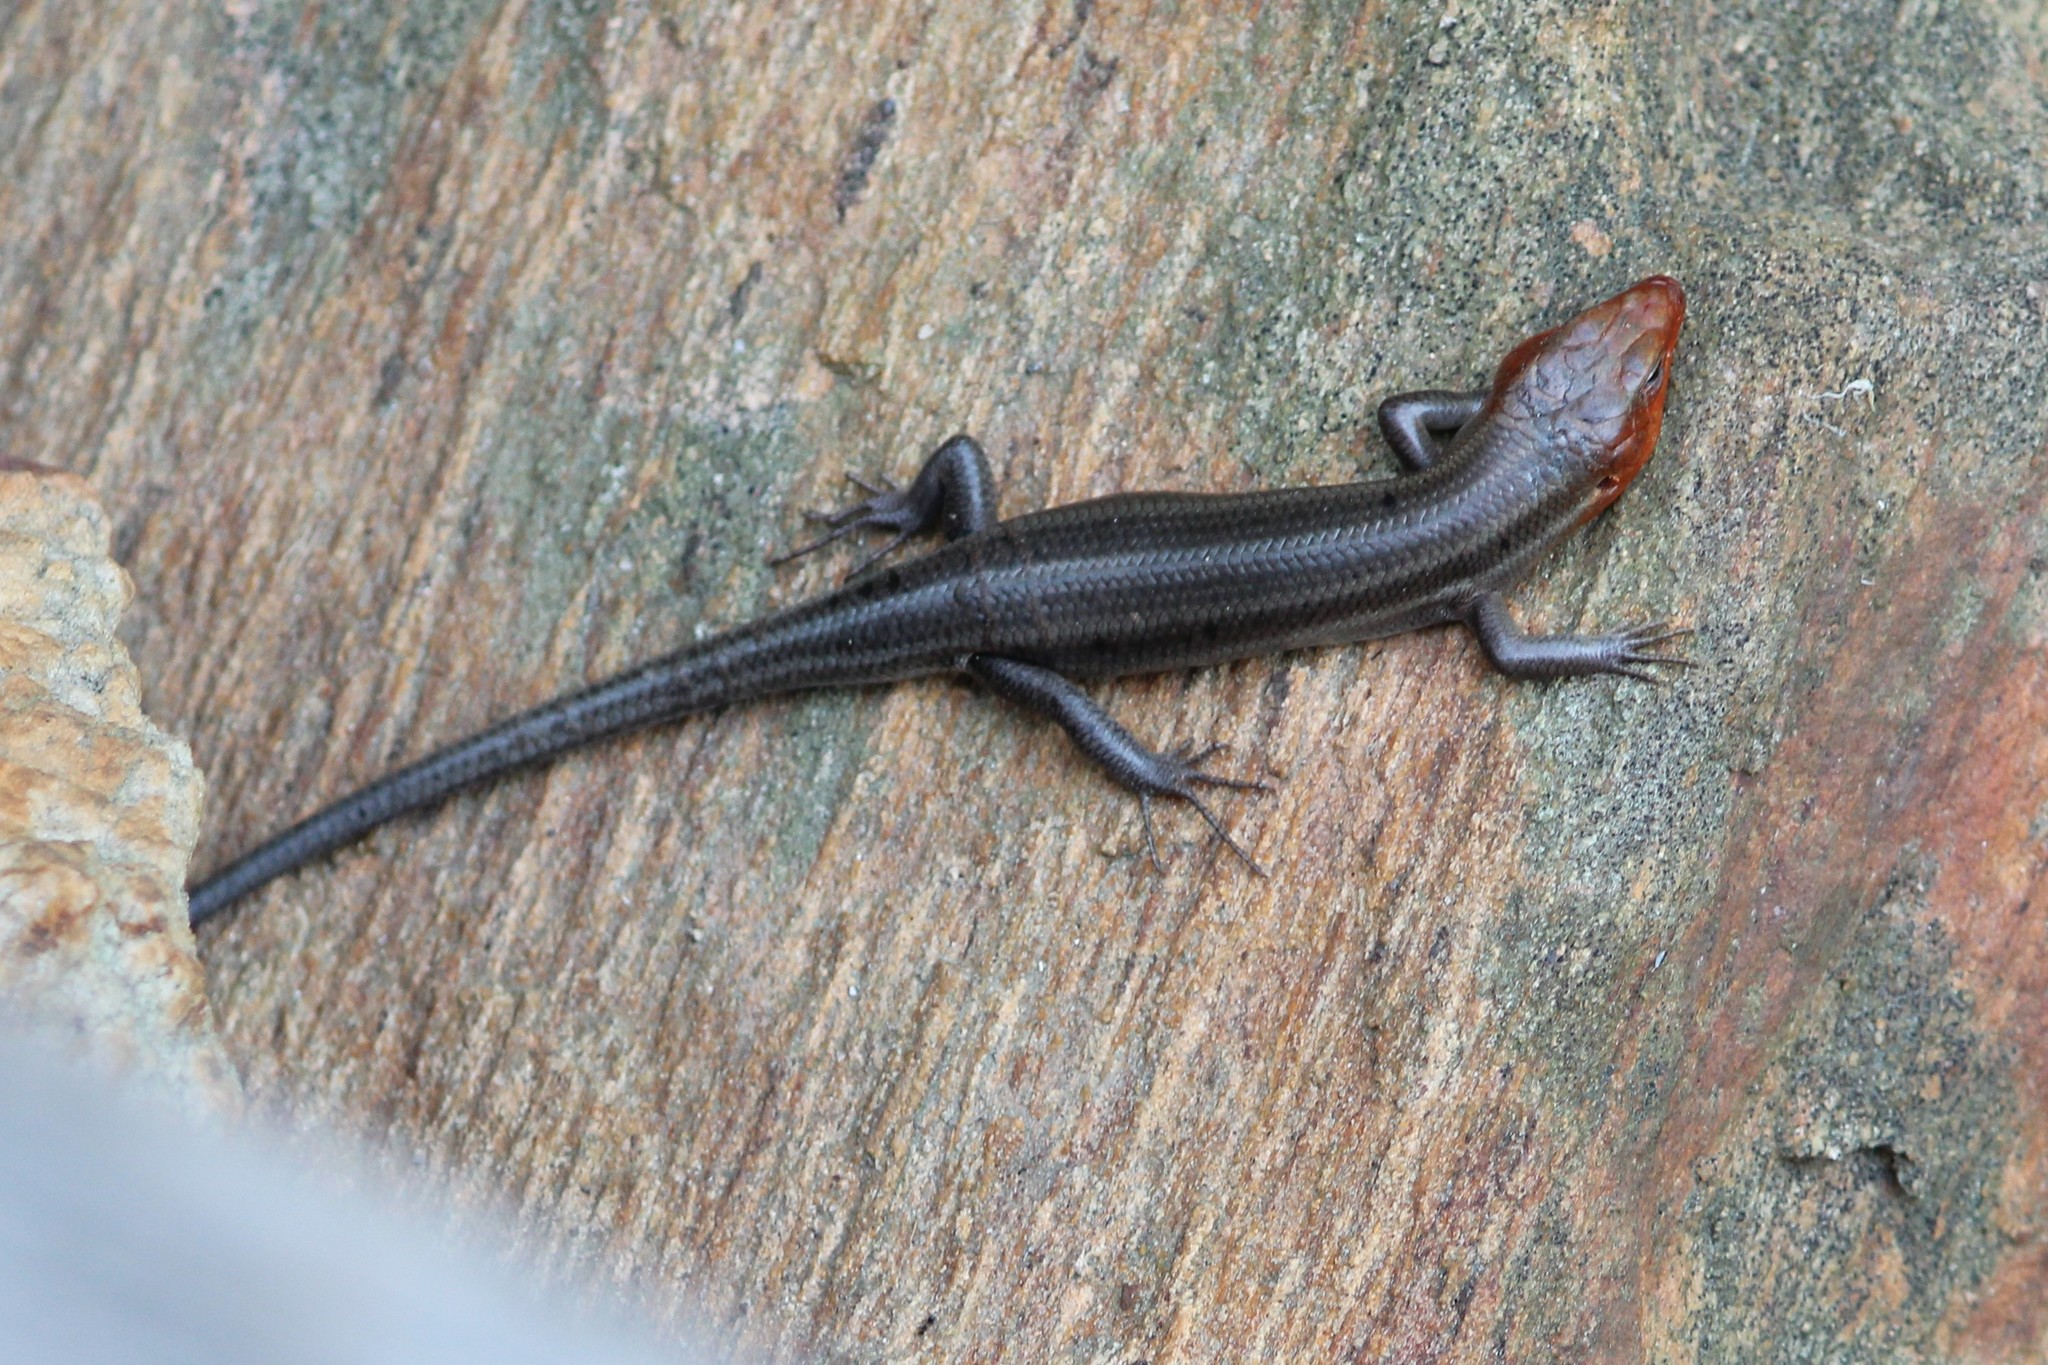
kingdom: Animalia
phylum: Chordata
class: Squamata
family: Scincidae
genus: Plestiodon
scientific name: Plestiodon fasciatus
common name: Five-lined skink
